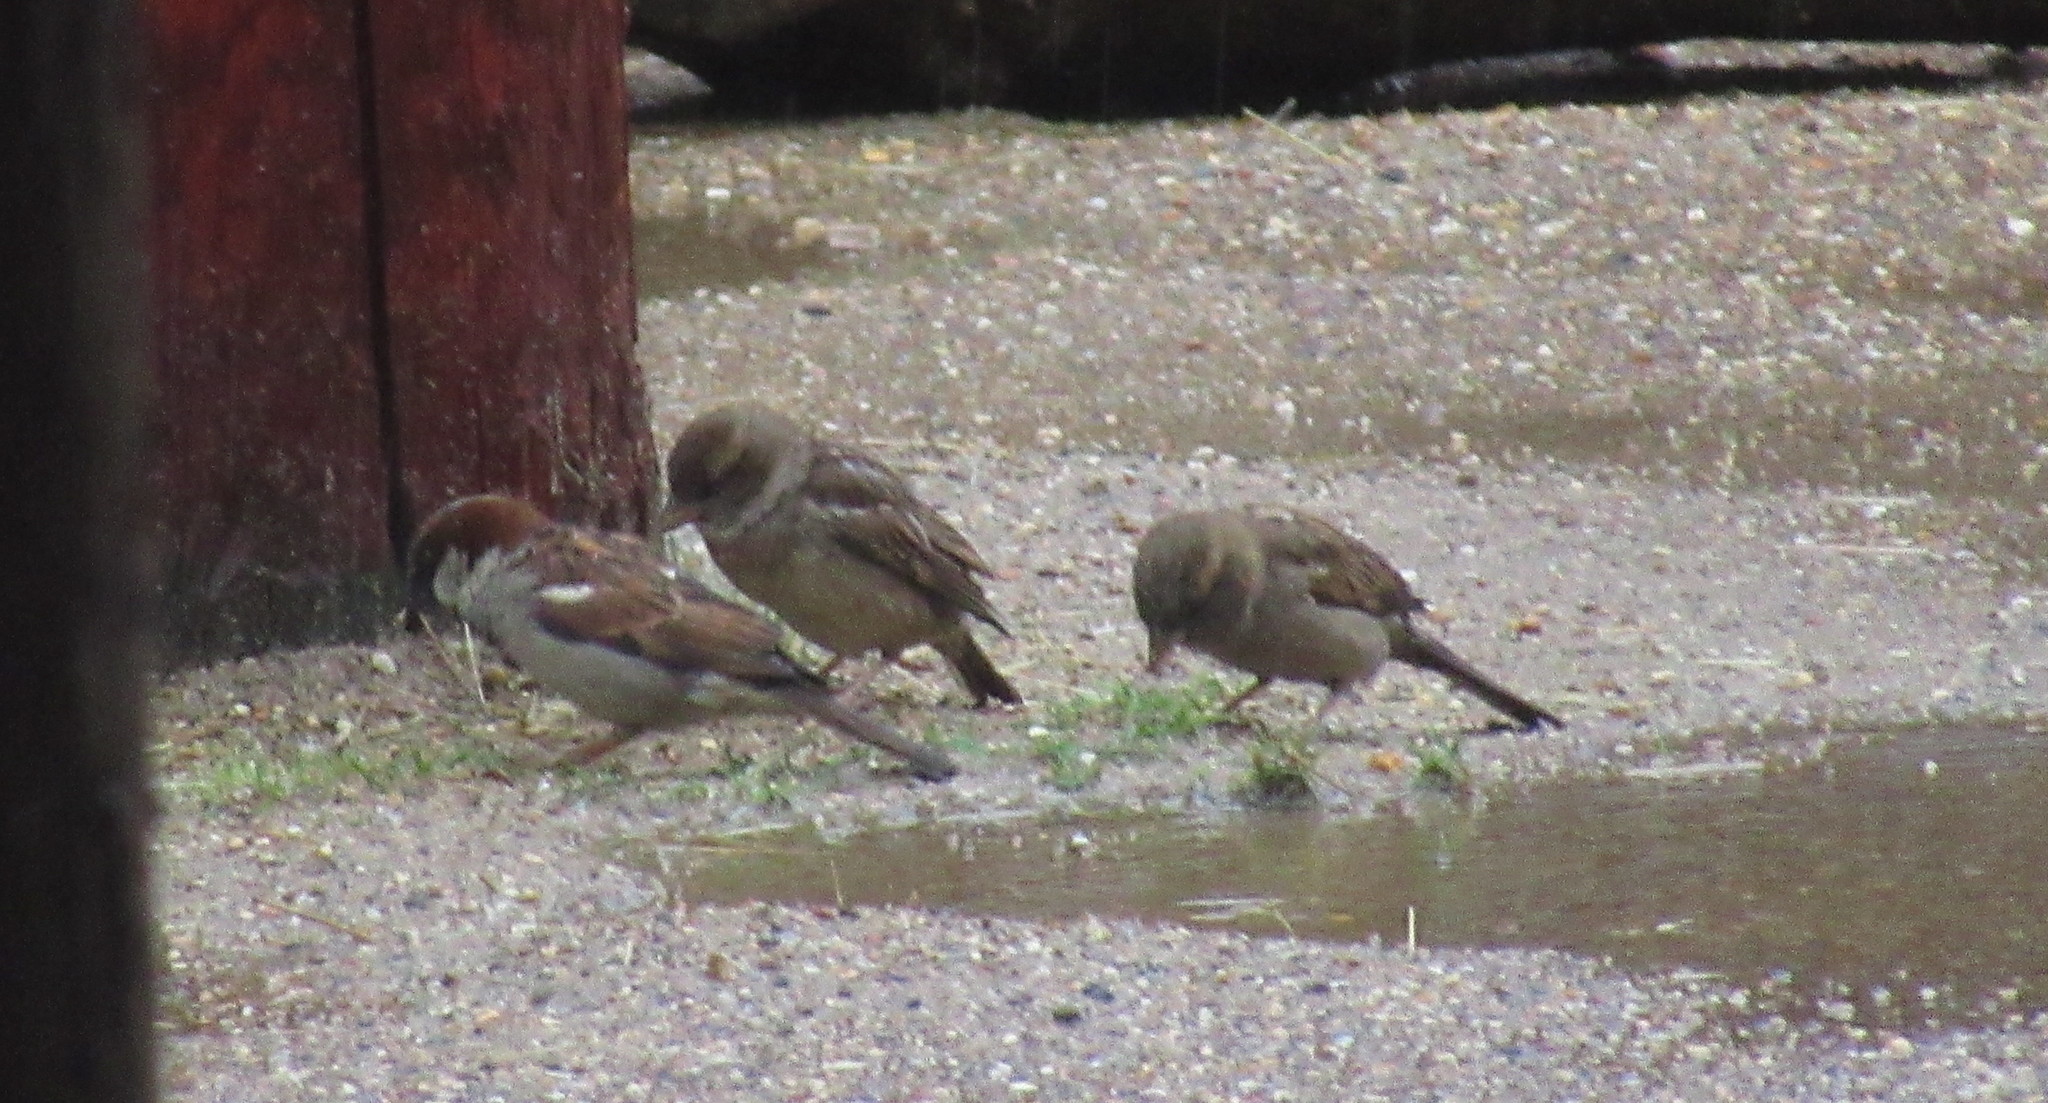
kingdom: Animalia
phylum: Chordata
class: Aves
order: Passeriformes
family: Passeridae
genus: Passer
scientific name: Passer domesticus
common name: House sparrow
